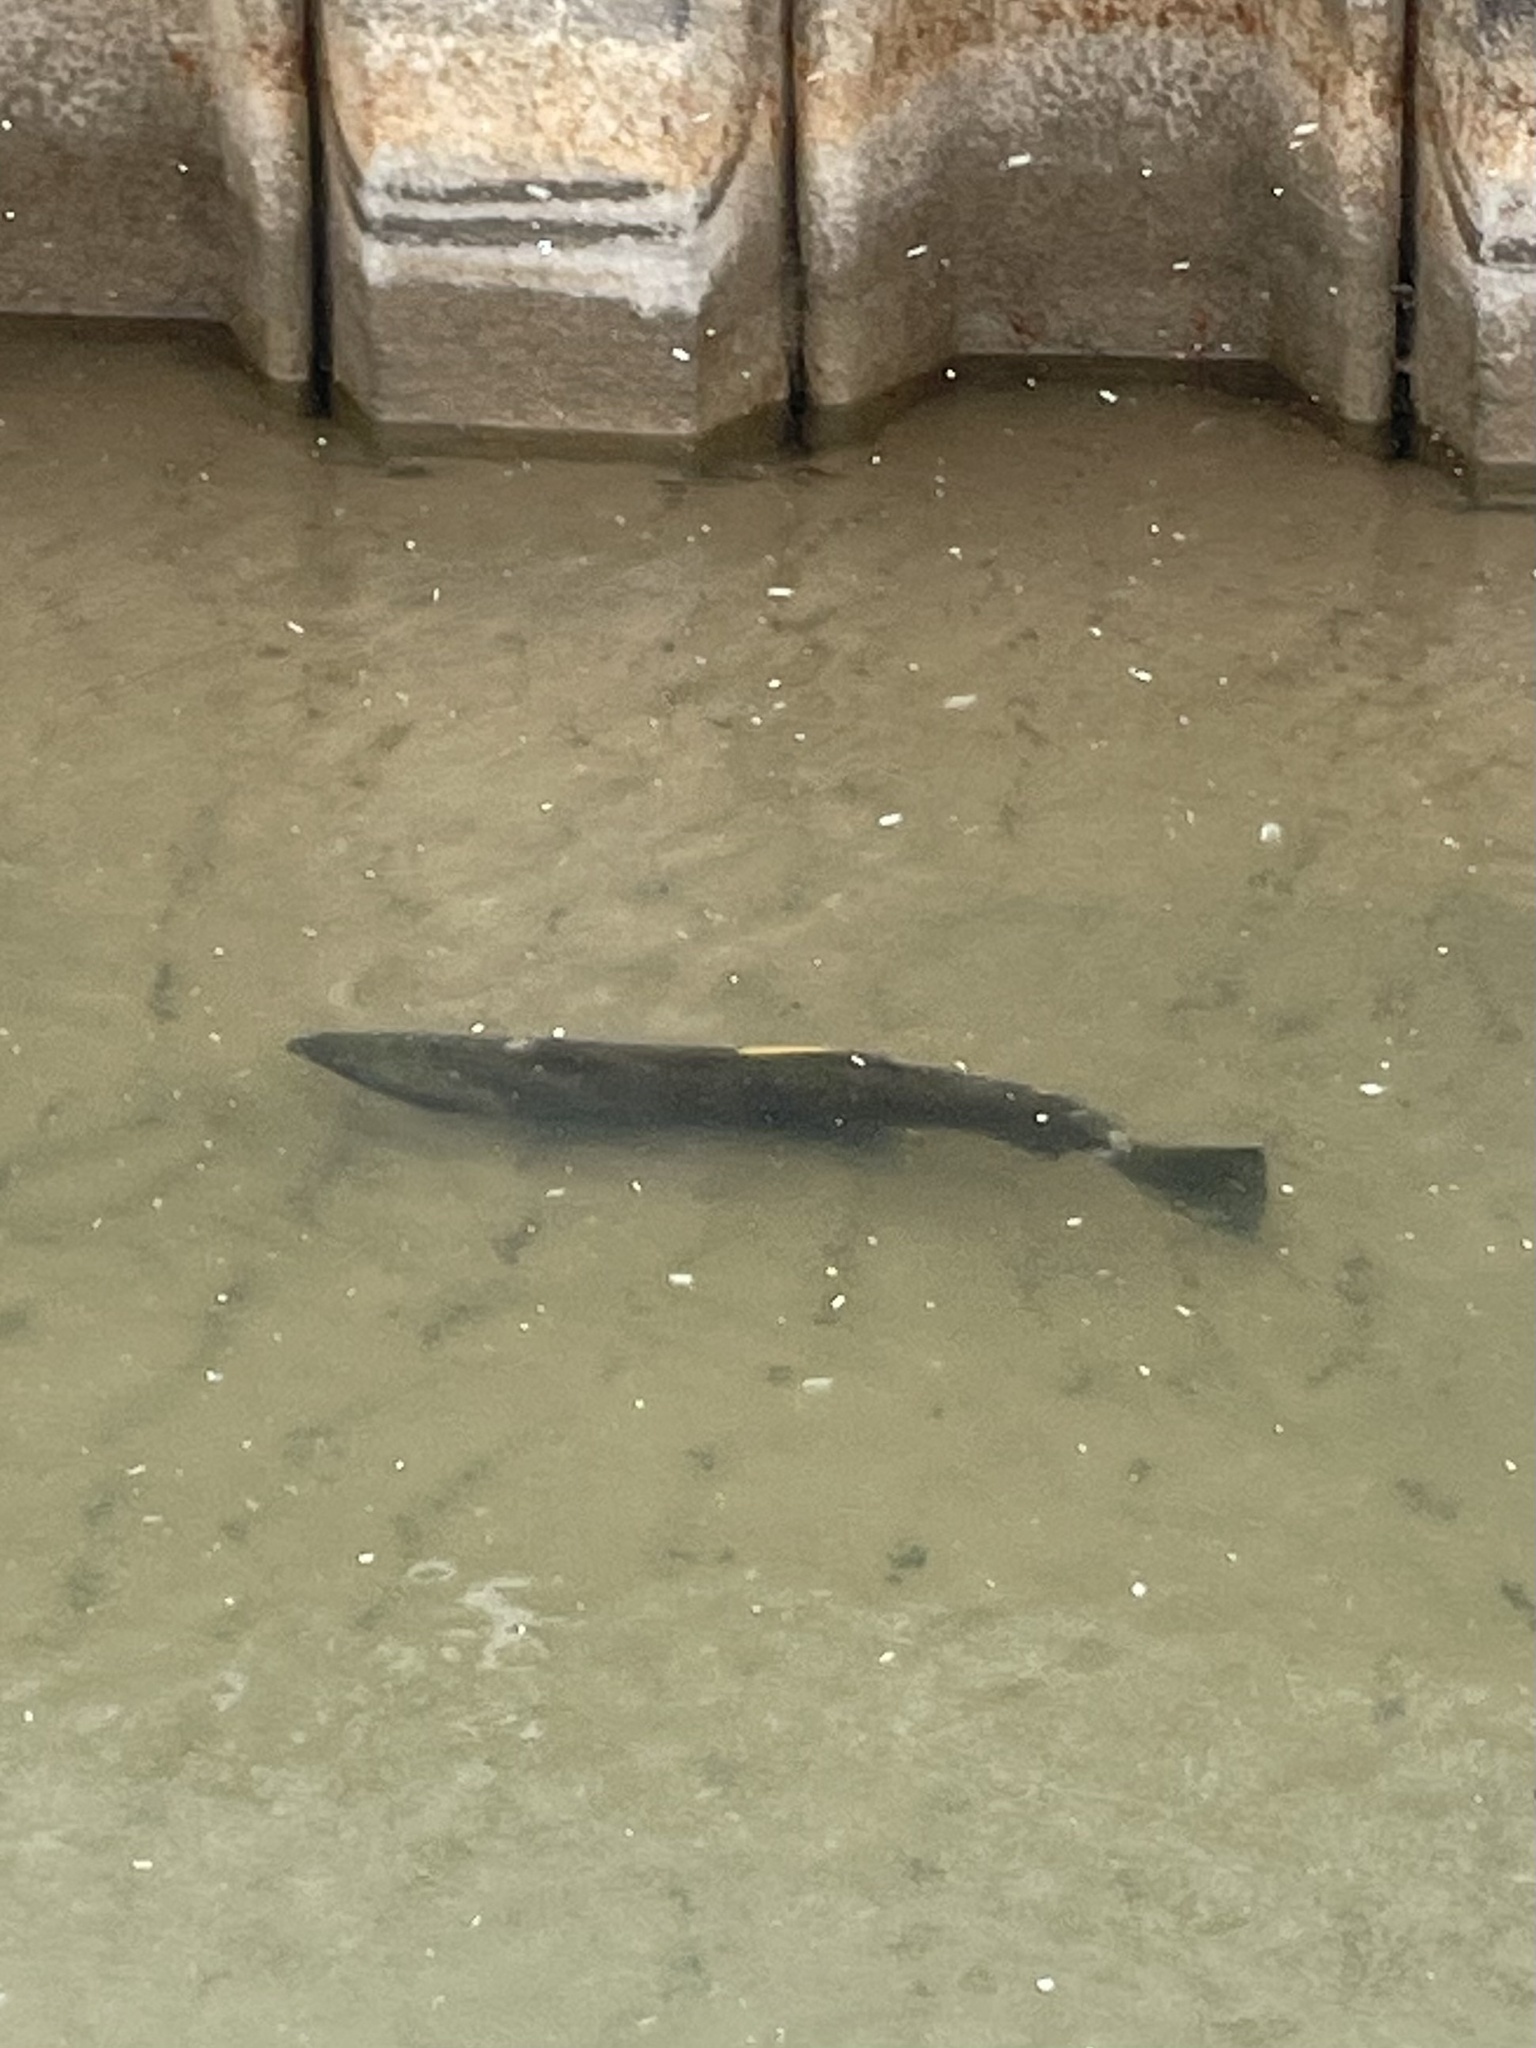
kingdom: Animalia
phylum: Chordata
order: Salmoniformes
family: Salmonidae
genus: Oncorhynchus
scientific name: Oncorhynchus kisutch
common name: Coho salmon
